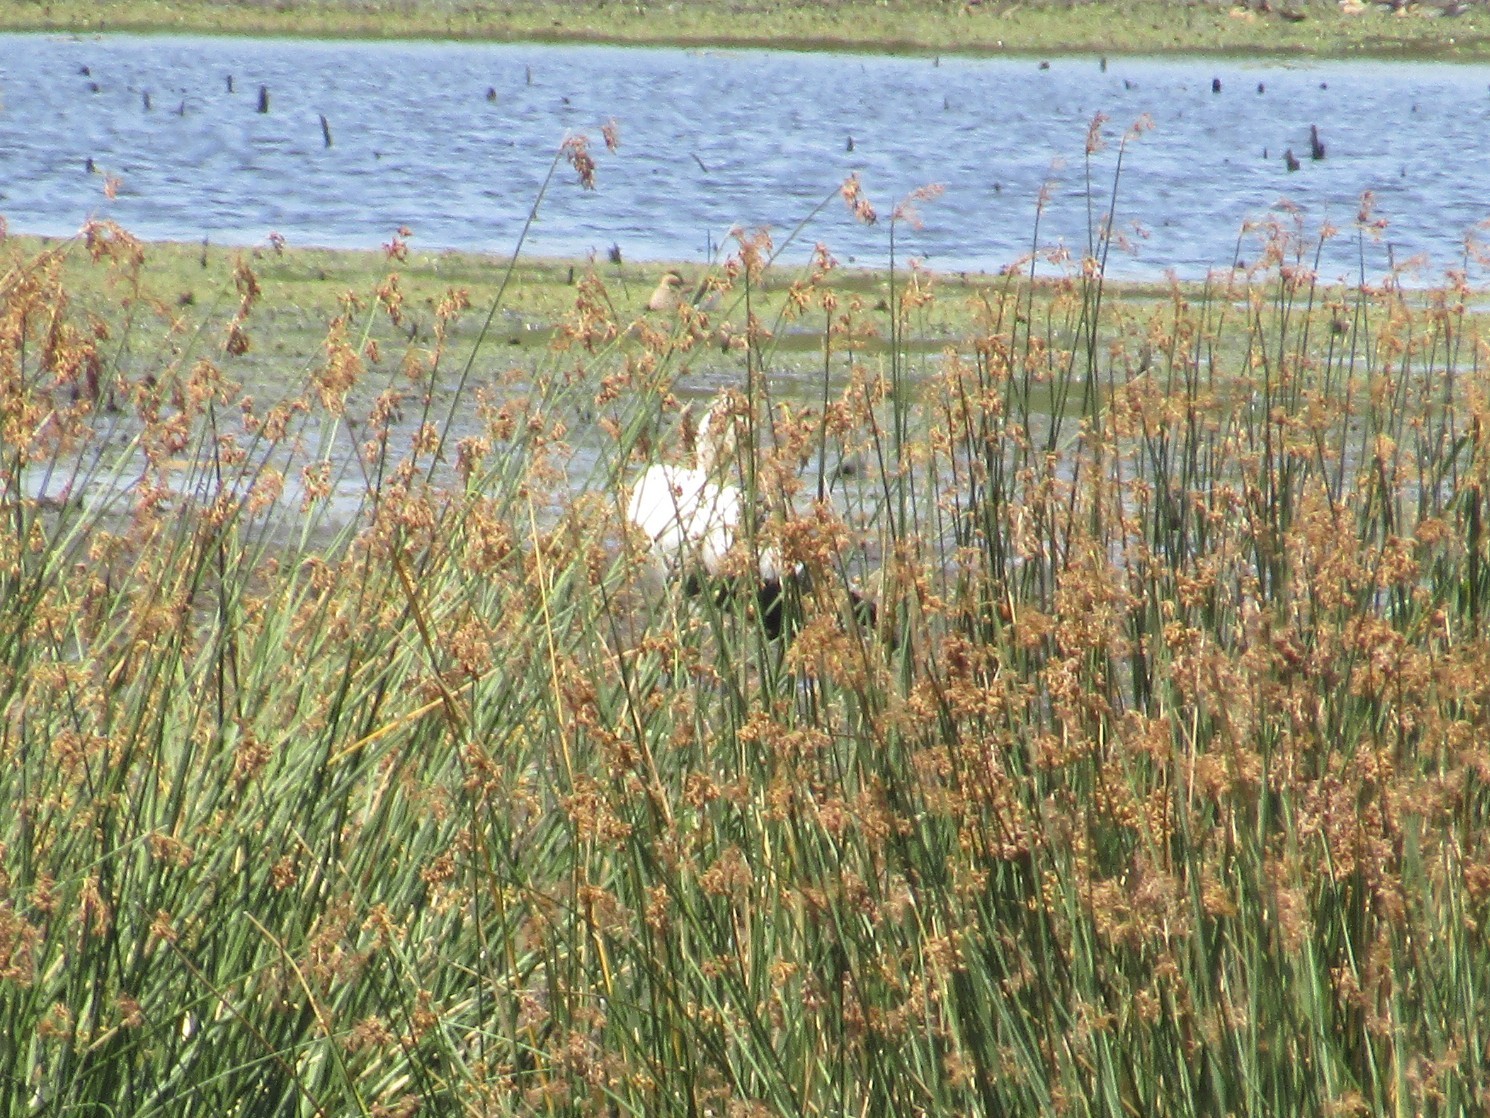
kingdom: Animalia
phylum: Chordata
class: Aves
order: Ciconiiformes
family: Ciconiidae
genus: Ciconia
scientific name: Ciconia maguari
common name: Maguari stork
